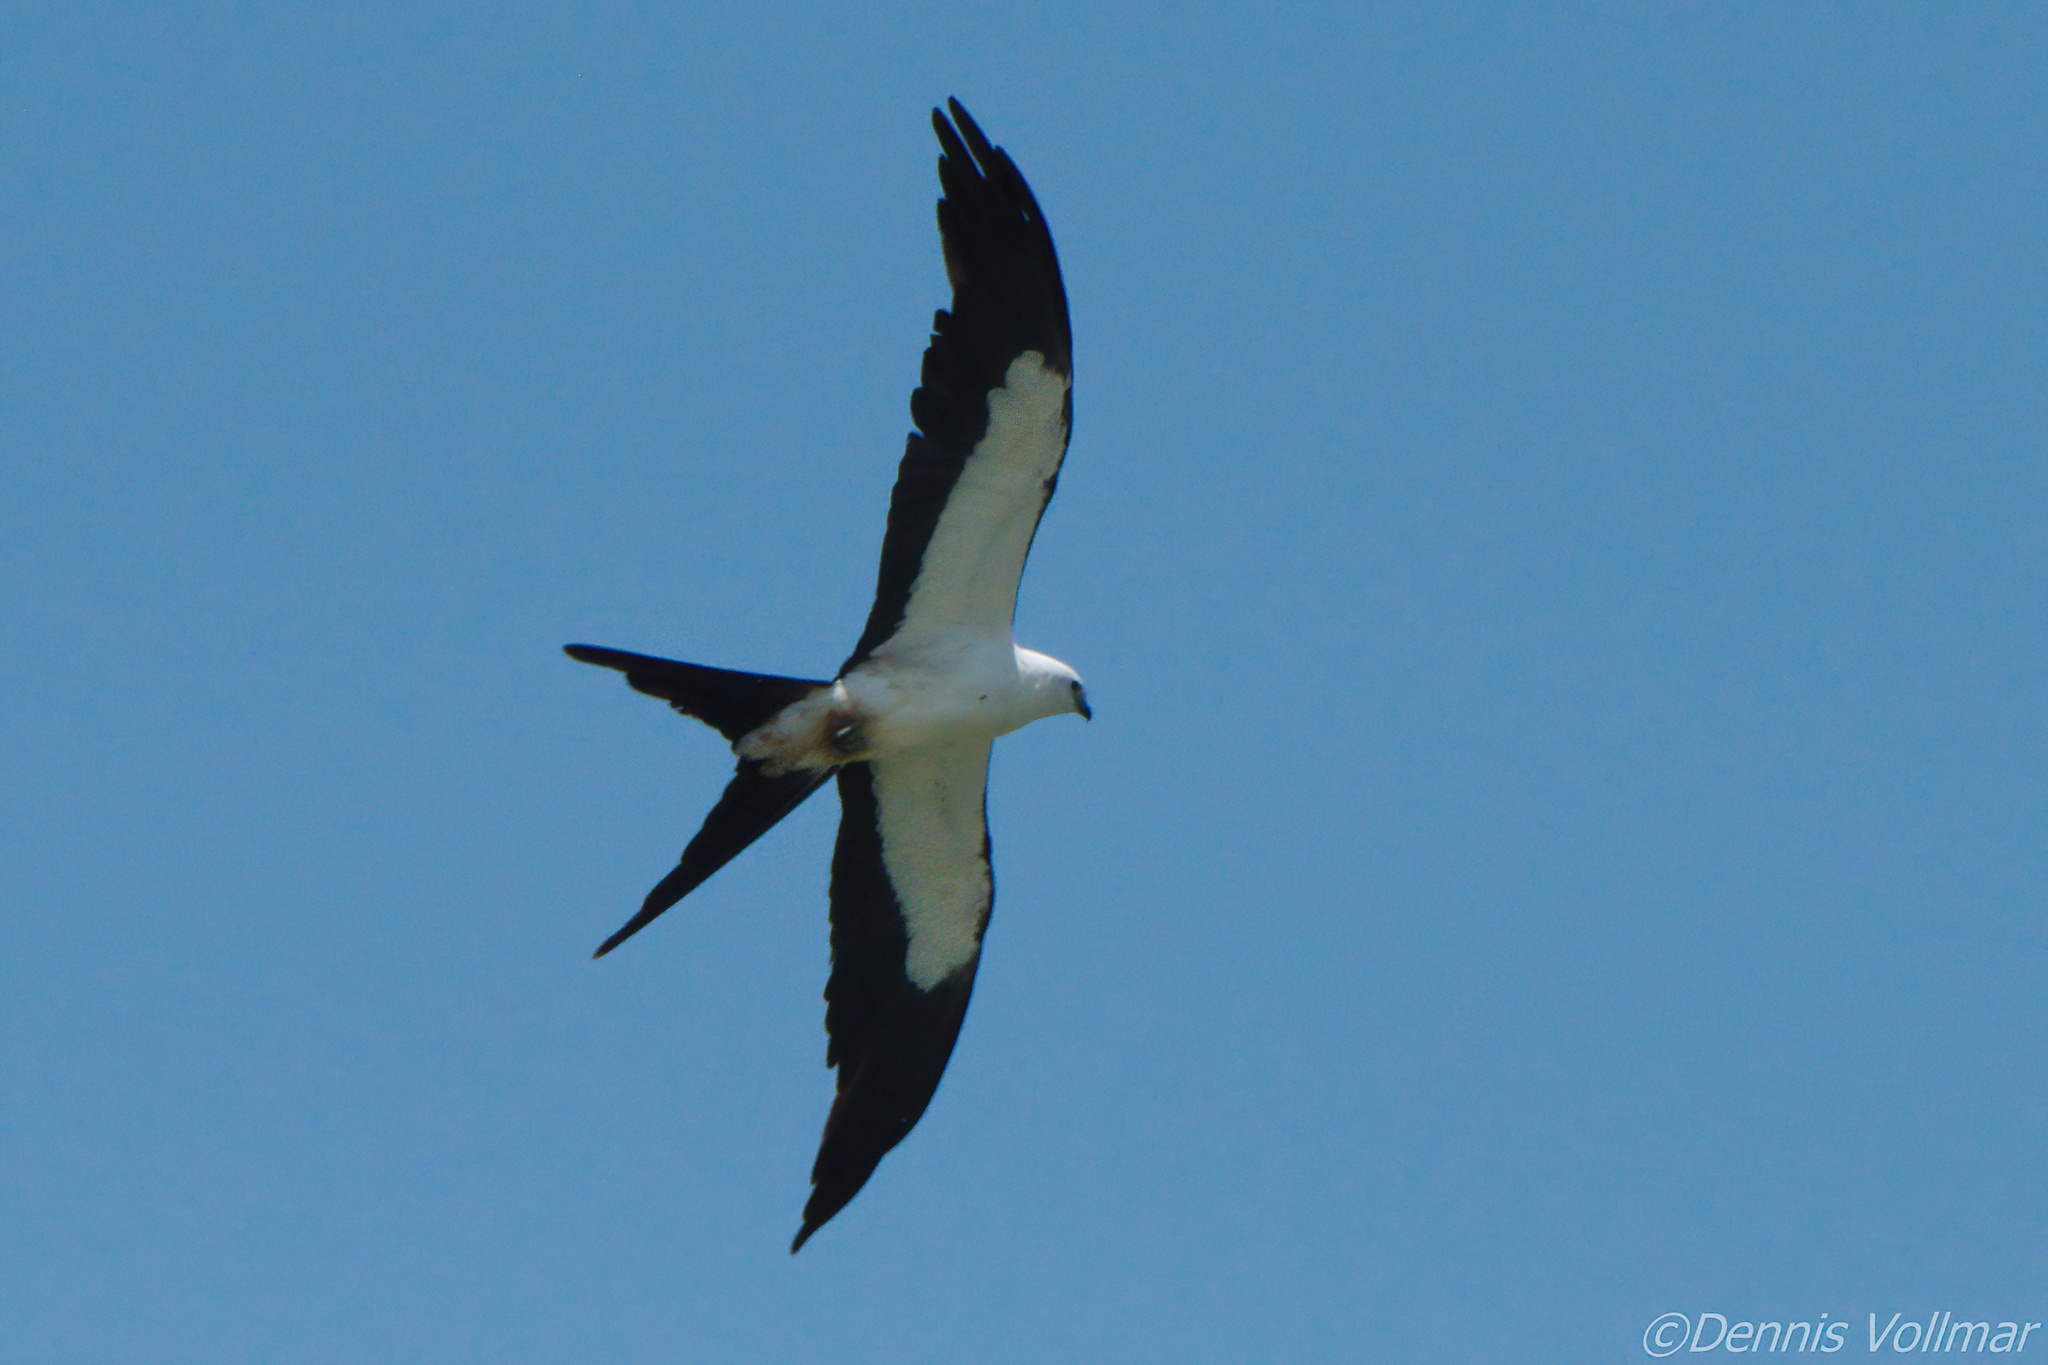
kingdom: Animalia
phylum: Chordata
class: Aves
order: Accipitriformes
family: Accipitridae
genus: Elanoides
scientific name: Elanoides forficatus
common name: Swallow-tailed kite
